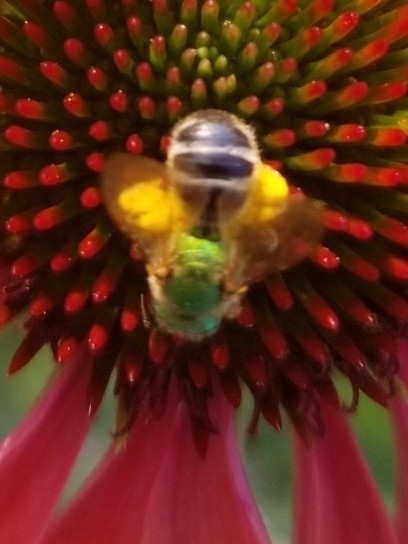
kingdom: Animalia
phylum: Arthropoda
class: Insecta
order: Hymenoptera
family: Halictidae
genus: Agapostemon
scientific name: Agapostemon virescens
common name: Bicolored striped sweat bee
